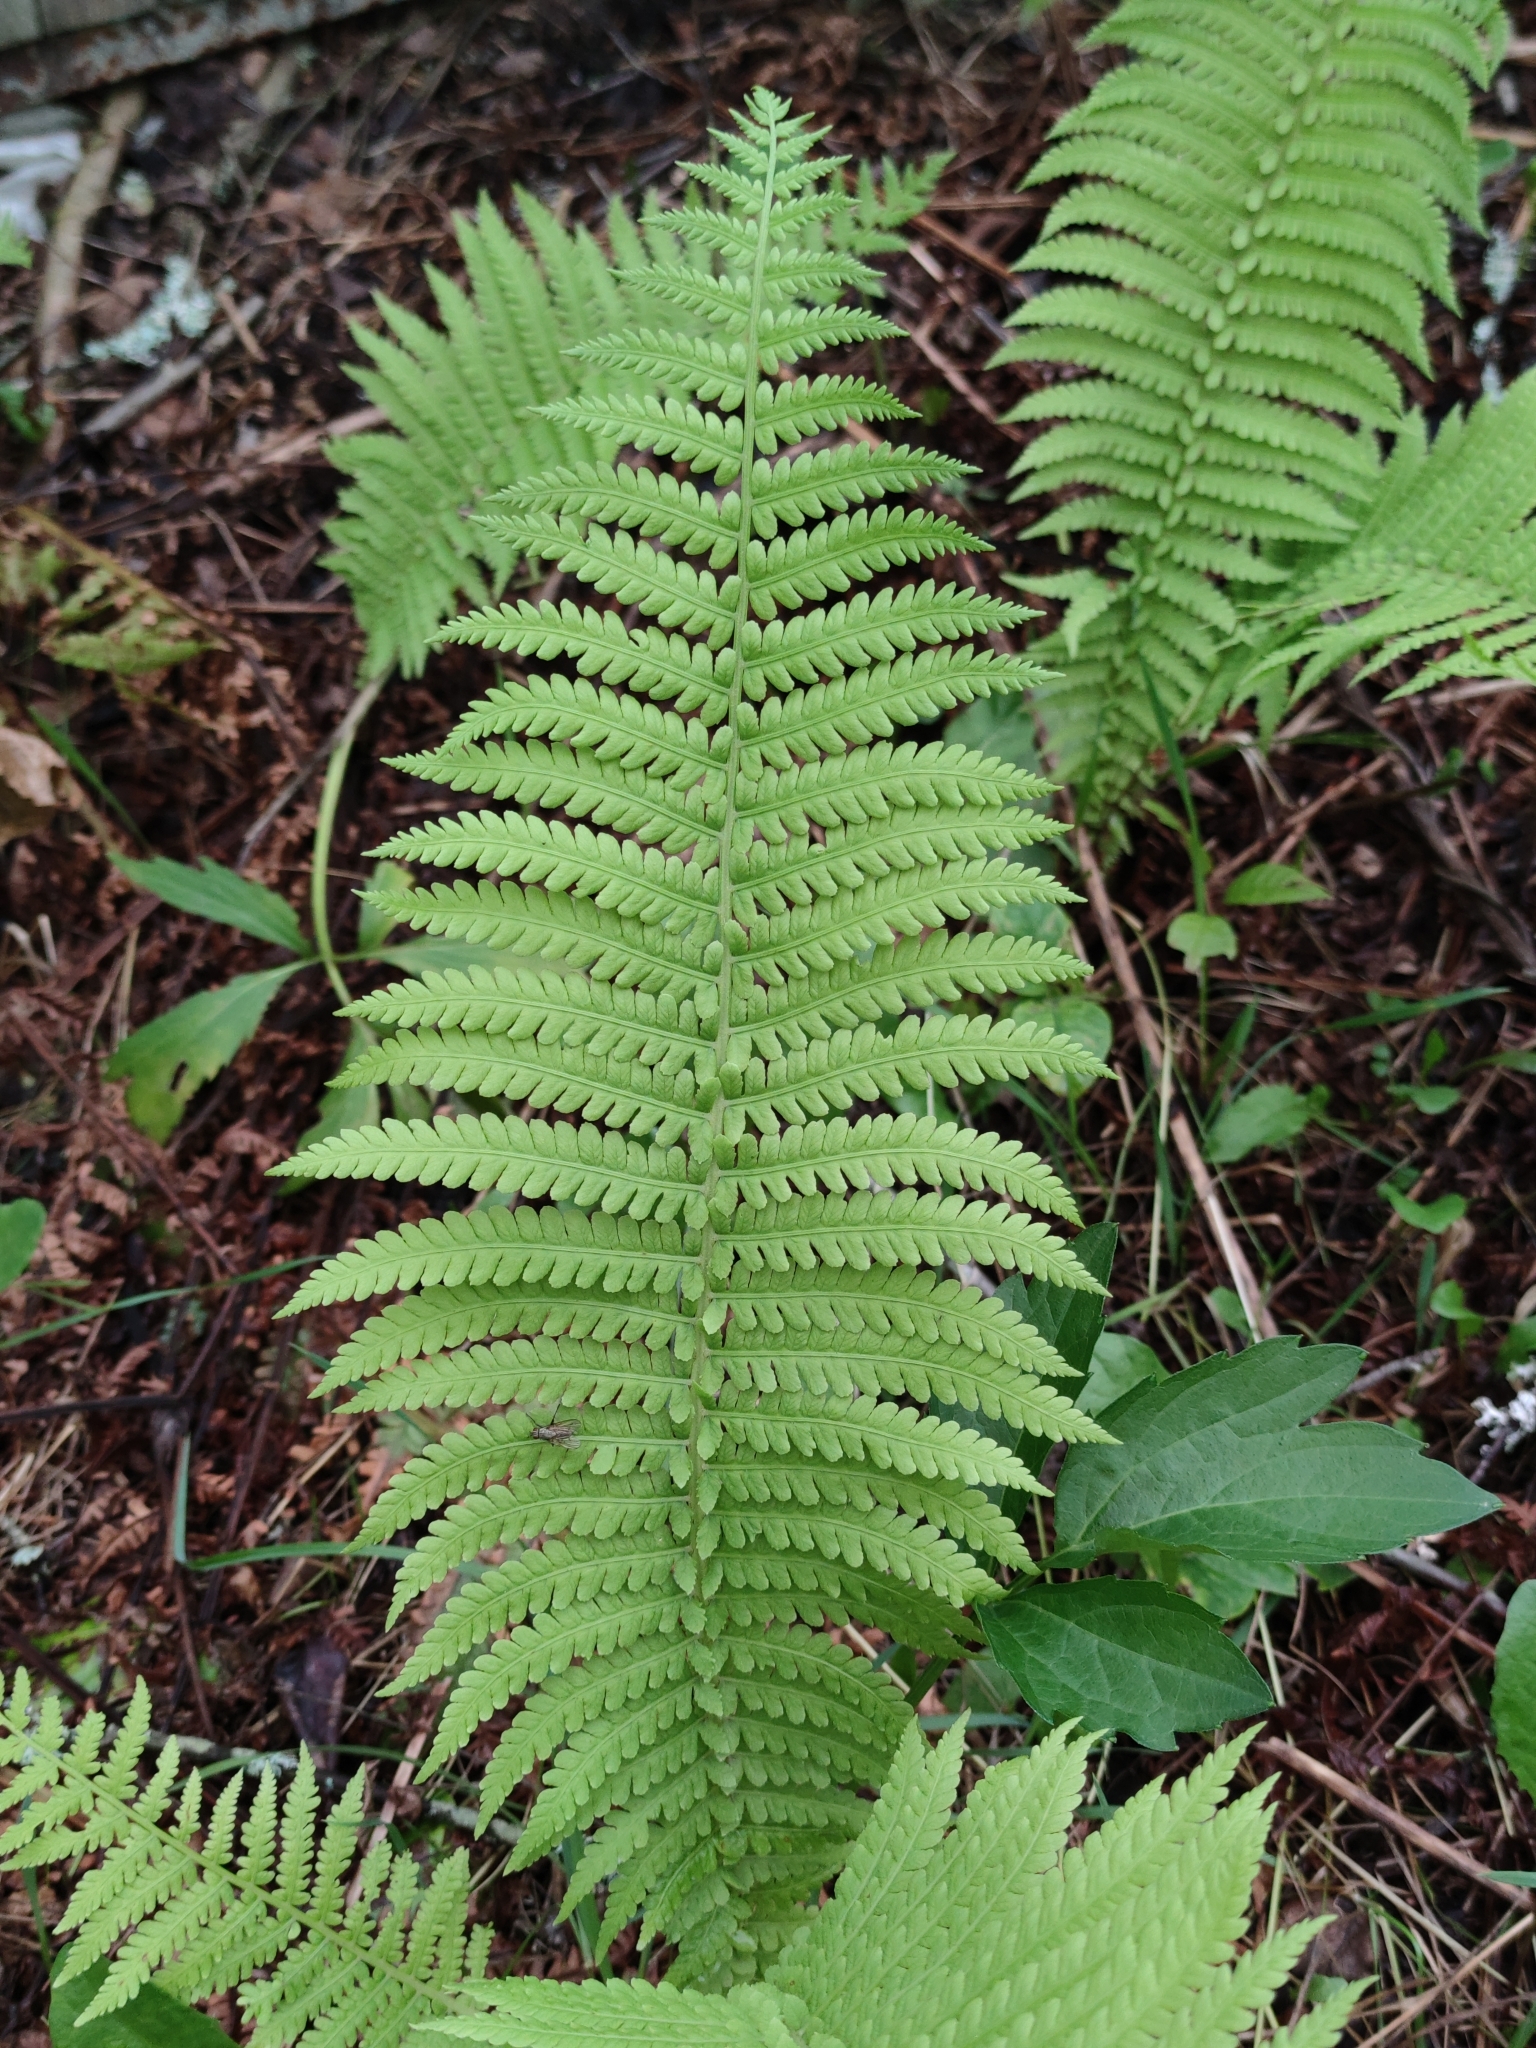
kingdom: Plantae
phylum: Tracheophyta
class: Polypodiopsida
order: Polypodiales
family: Onocleaceae
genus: Matteuccia
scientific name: Matteuccia struthiopteris
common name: Ostrich fern
